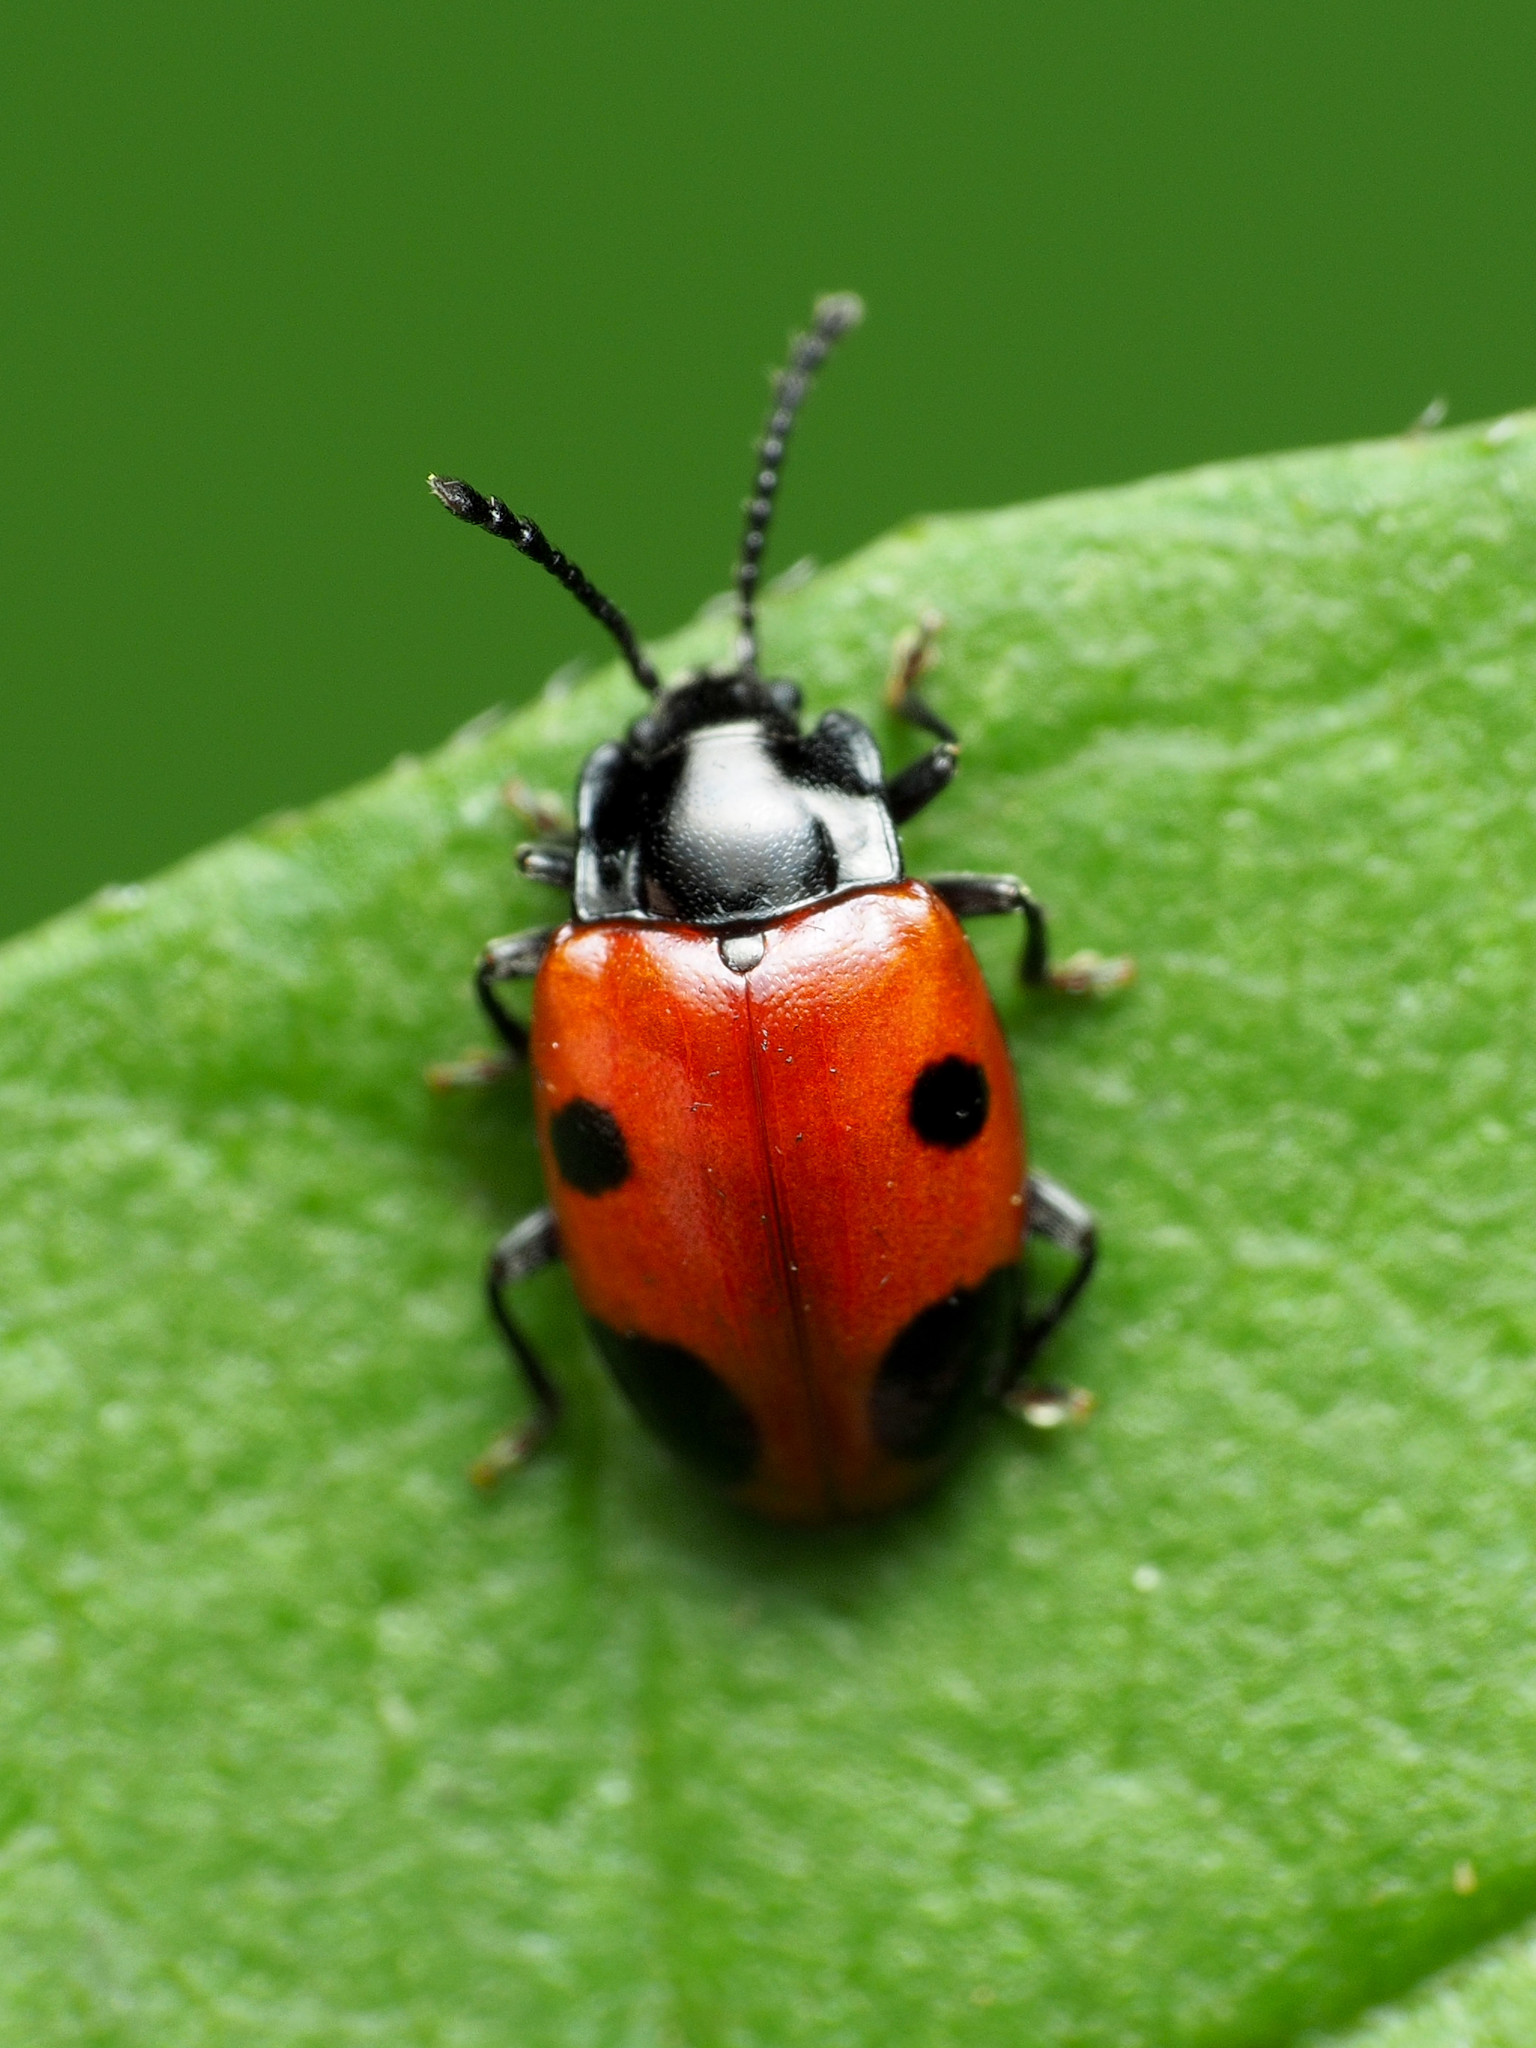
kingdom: Animalia
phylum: Arthropoda
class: Insecta
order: Coleoptera
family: Endomychidae
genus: Endomychus
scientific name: Endomychus biguttatus
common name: Handsome fungus beetle
